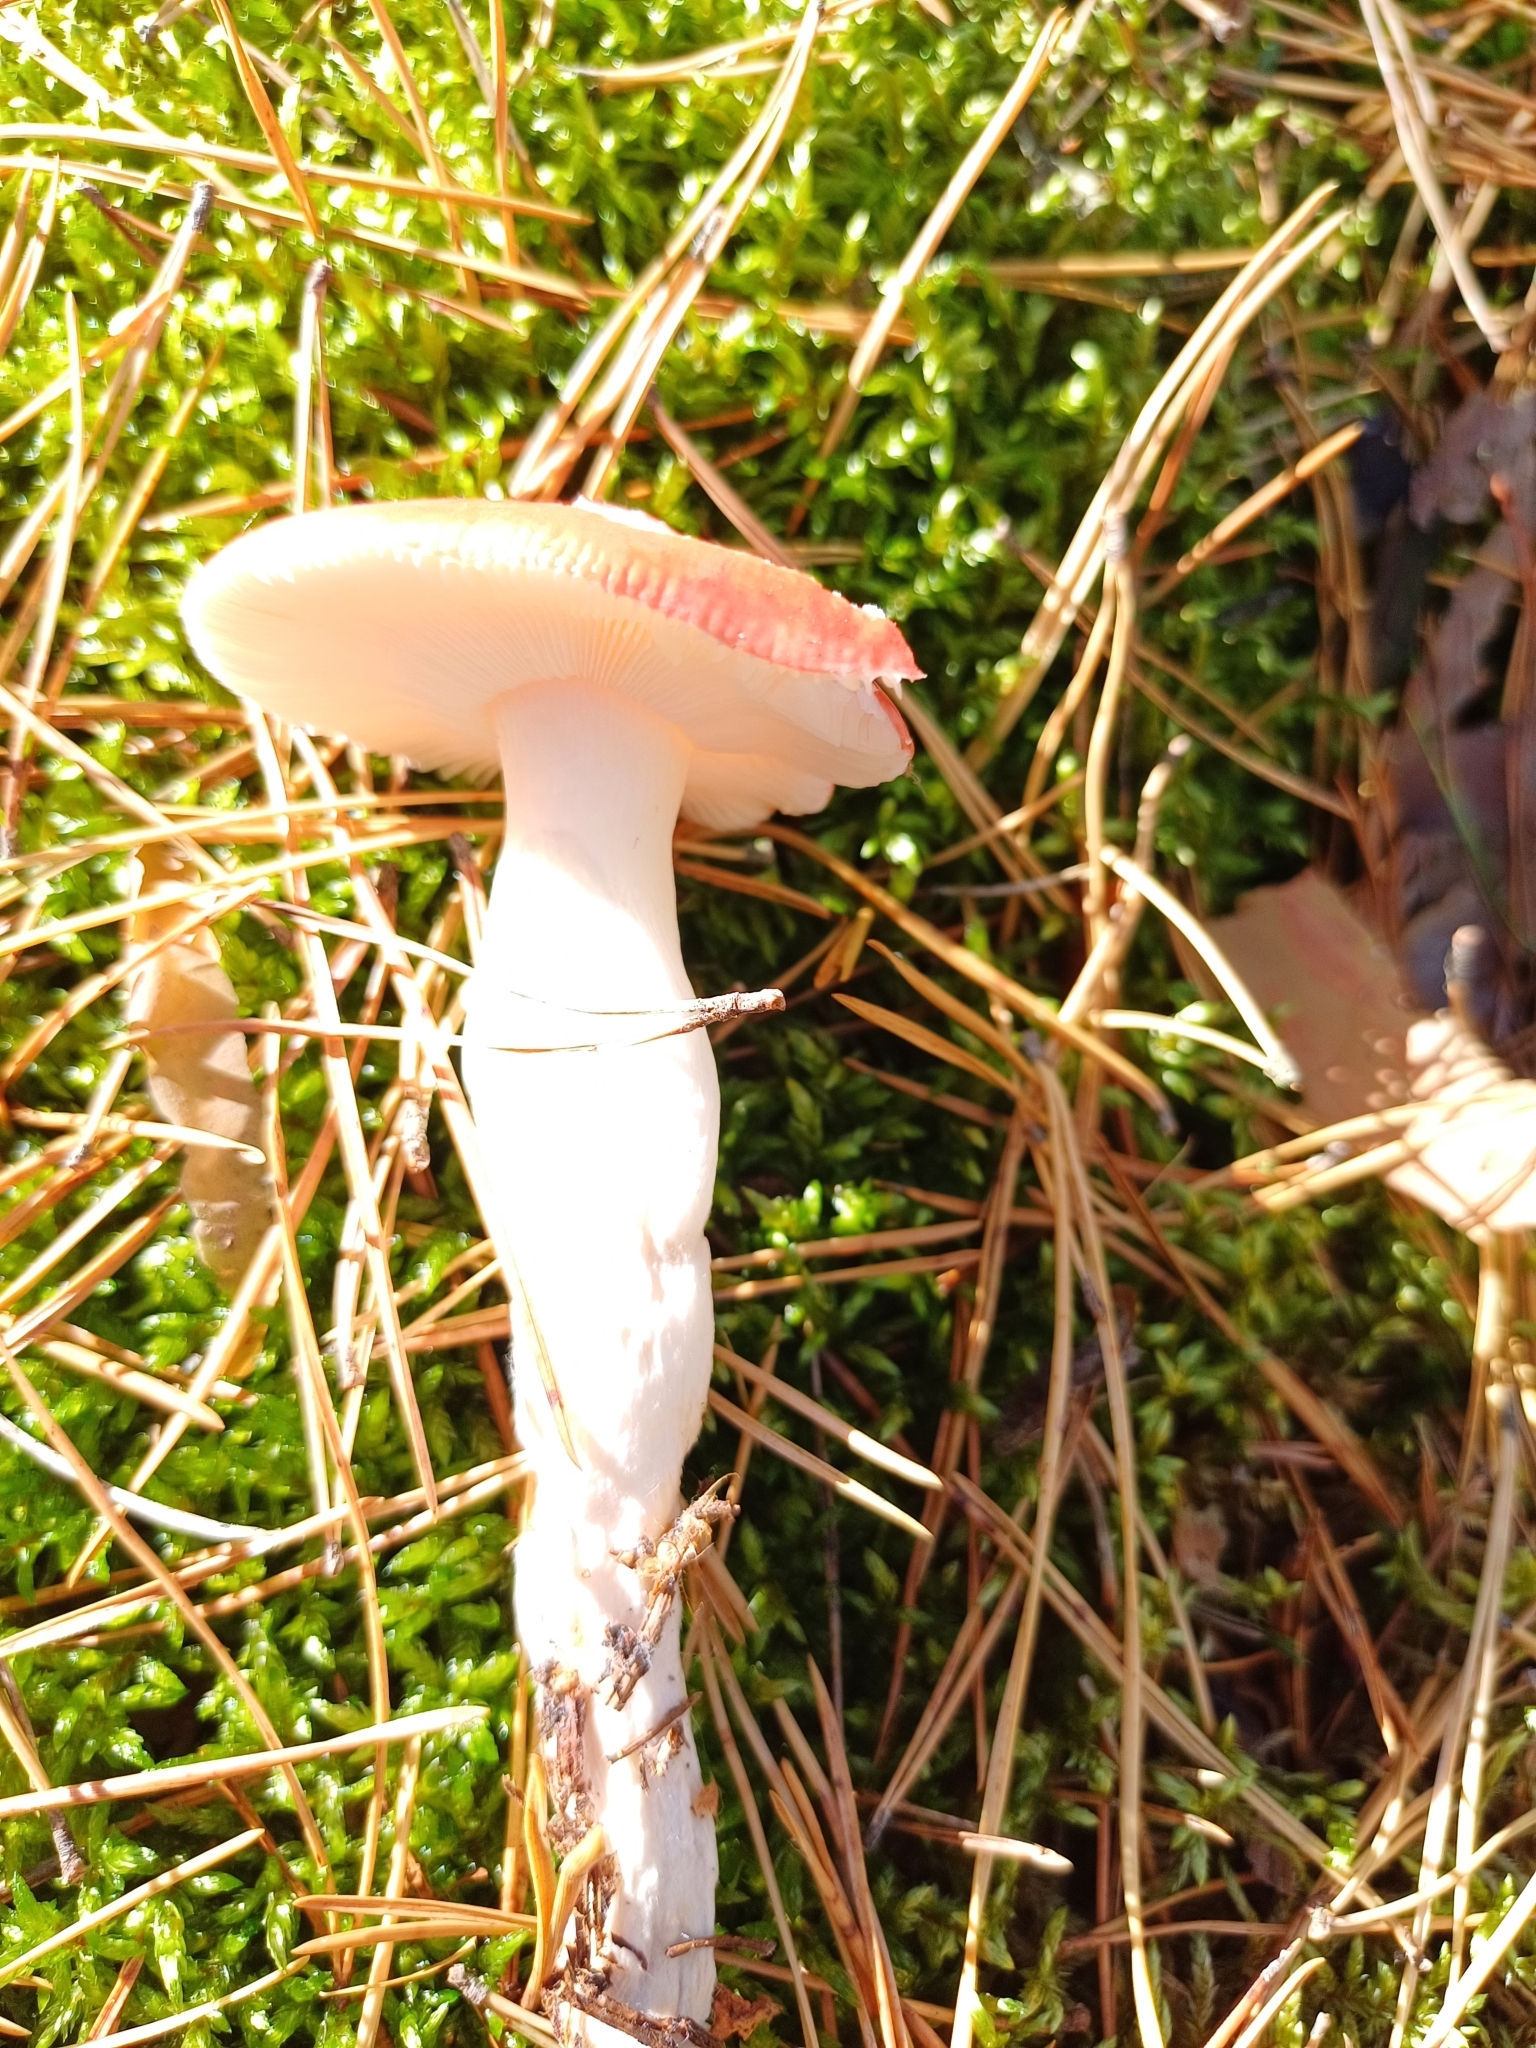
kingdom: Fungi
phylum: Basidiomycota
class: Agaricomycetes
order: Russulales
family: Russulaceae
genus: Russula
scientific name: Russula
